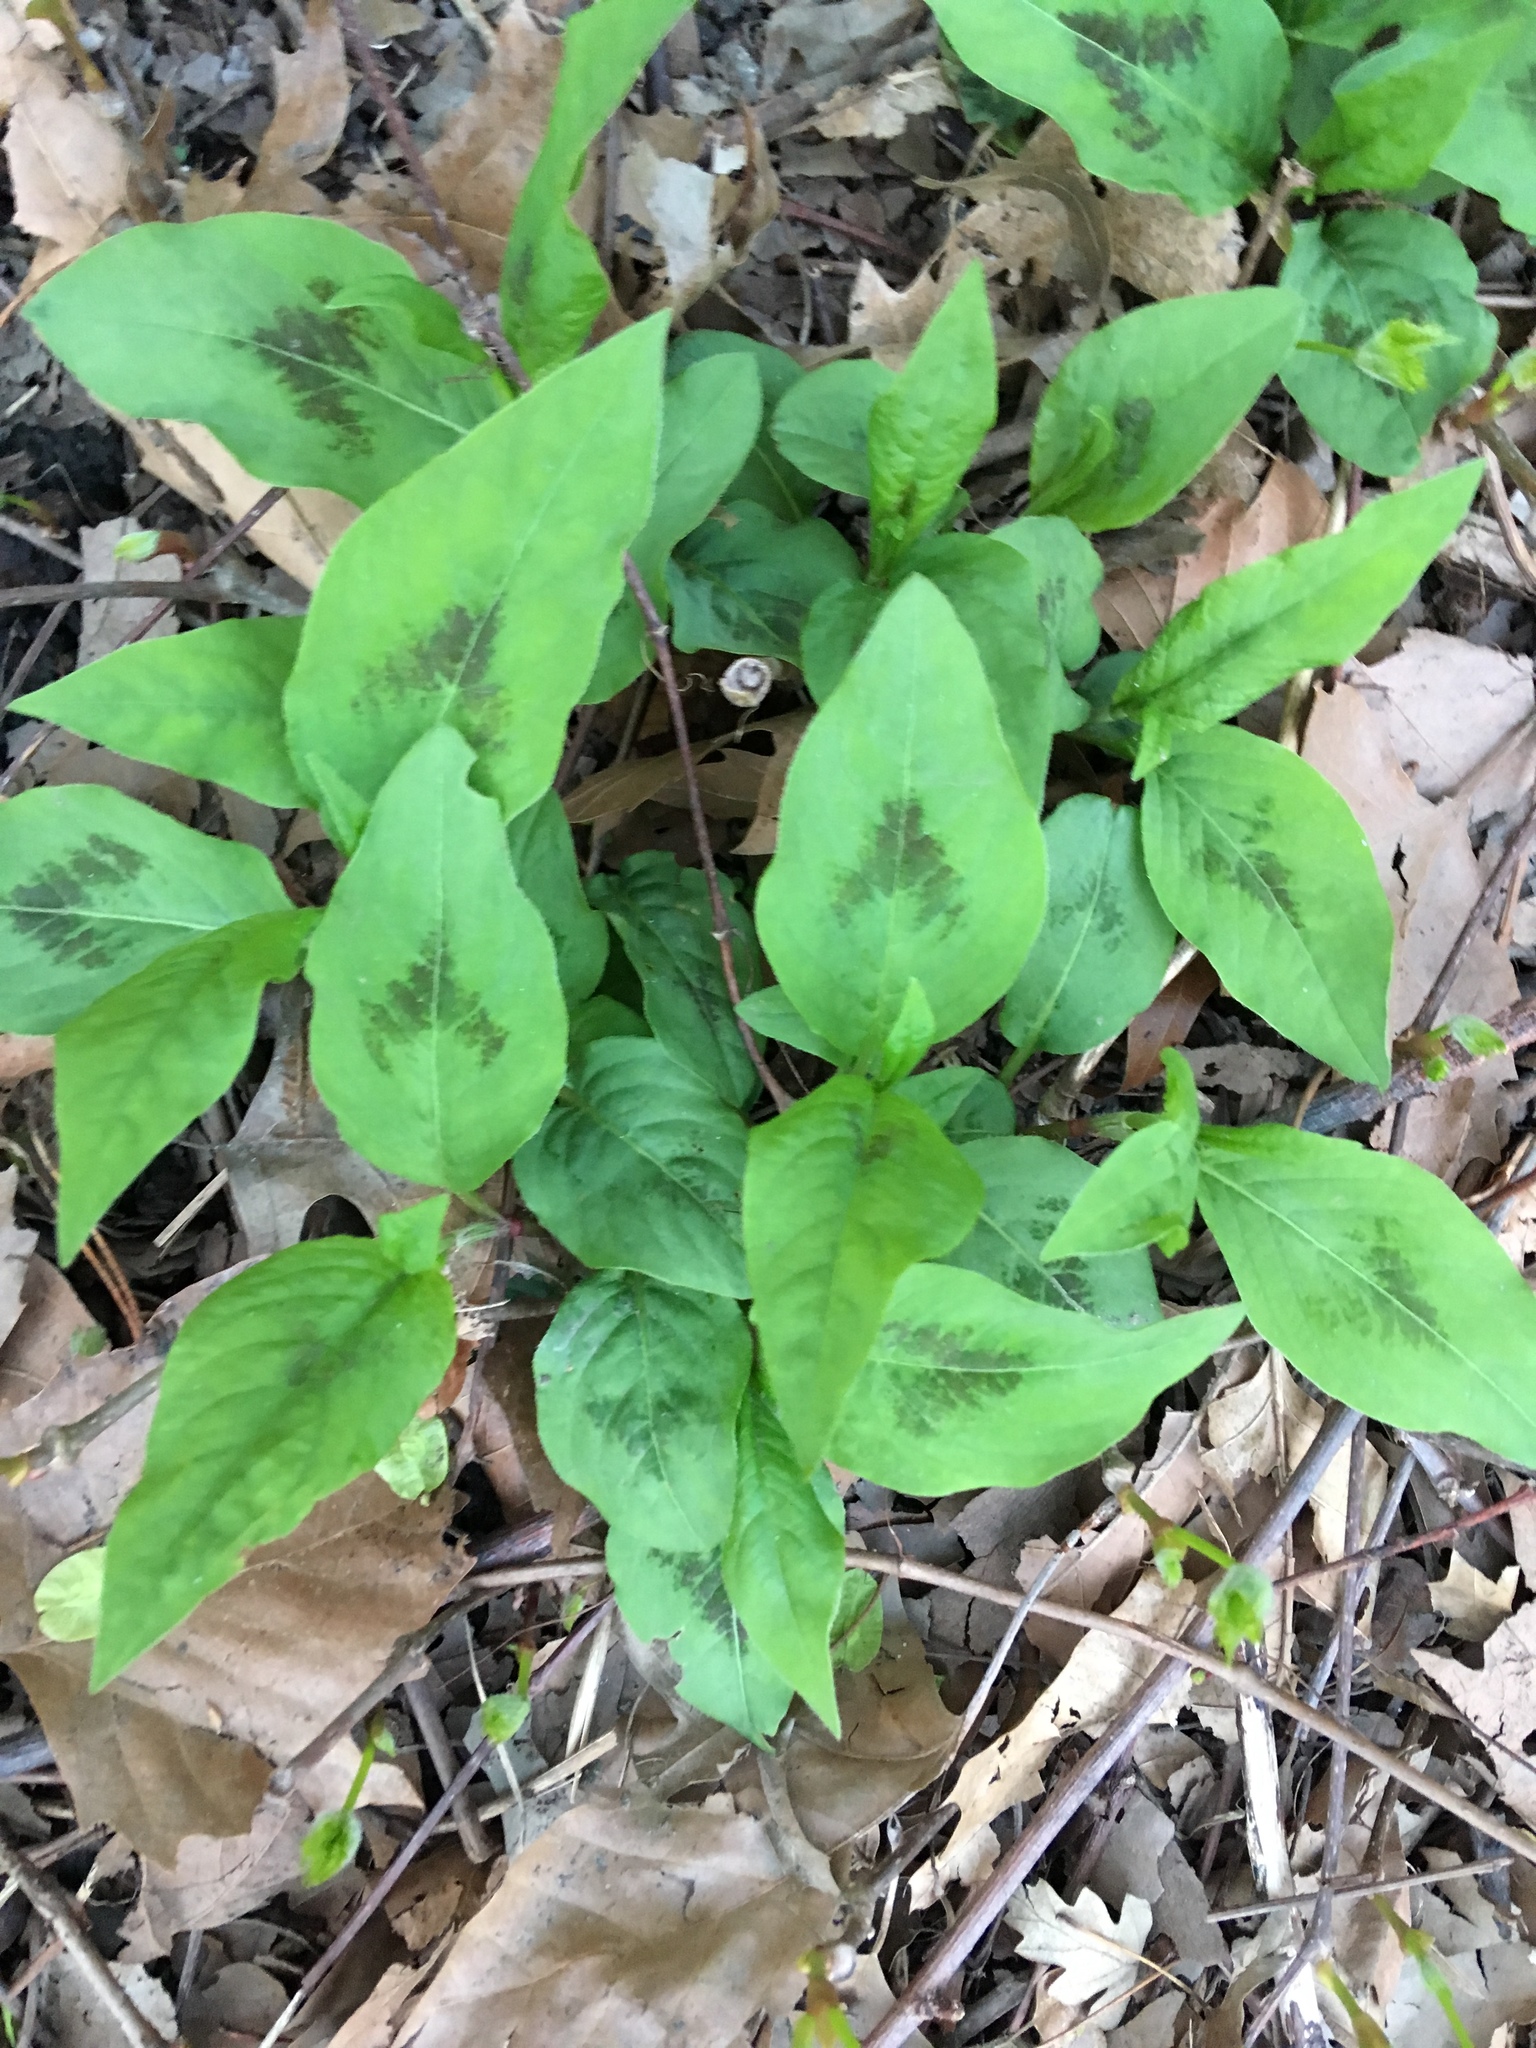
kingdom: Plantae
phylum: Tracheophyta
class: Magnoliopsida
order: Caryophyllales
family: Polygonaceae
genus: Persicaria
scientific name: Persicaria virginiana
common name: Jumpseed
